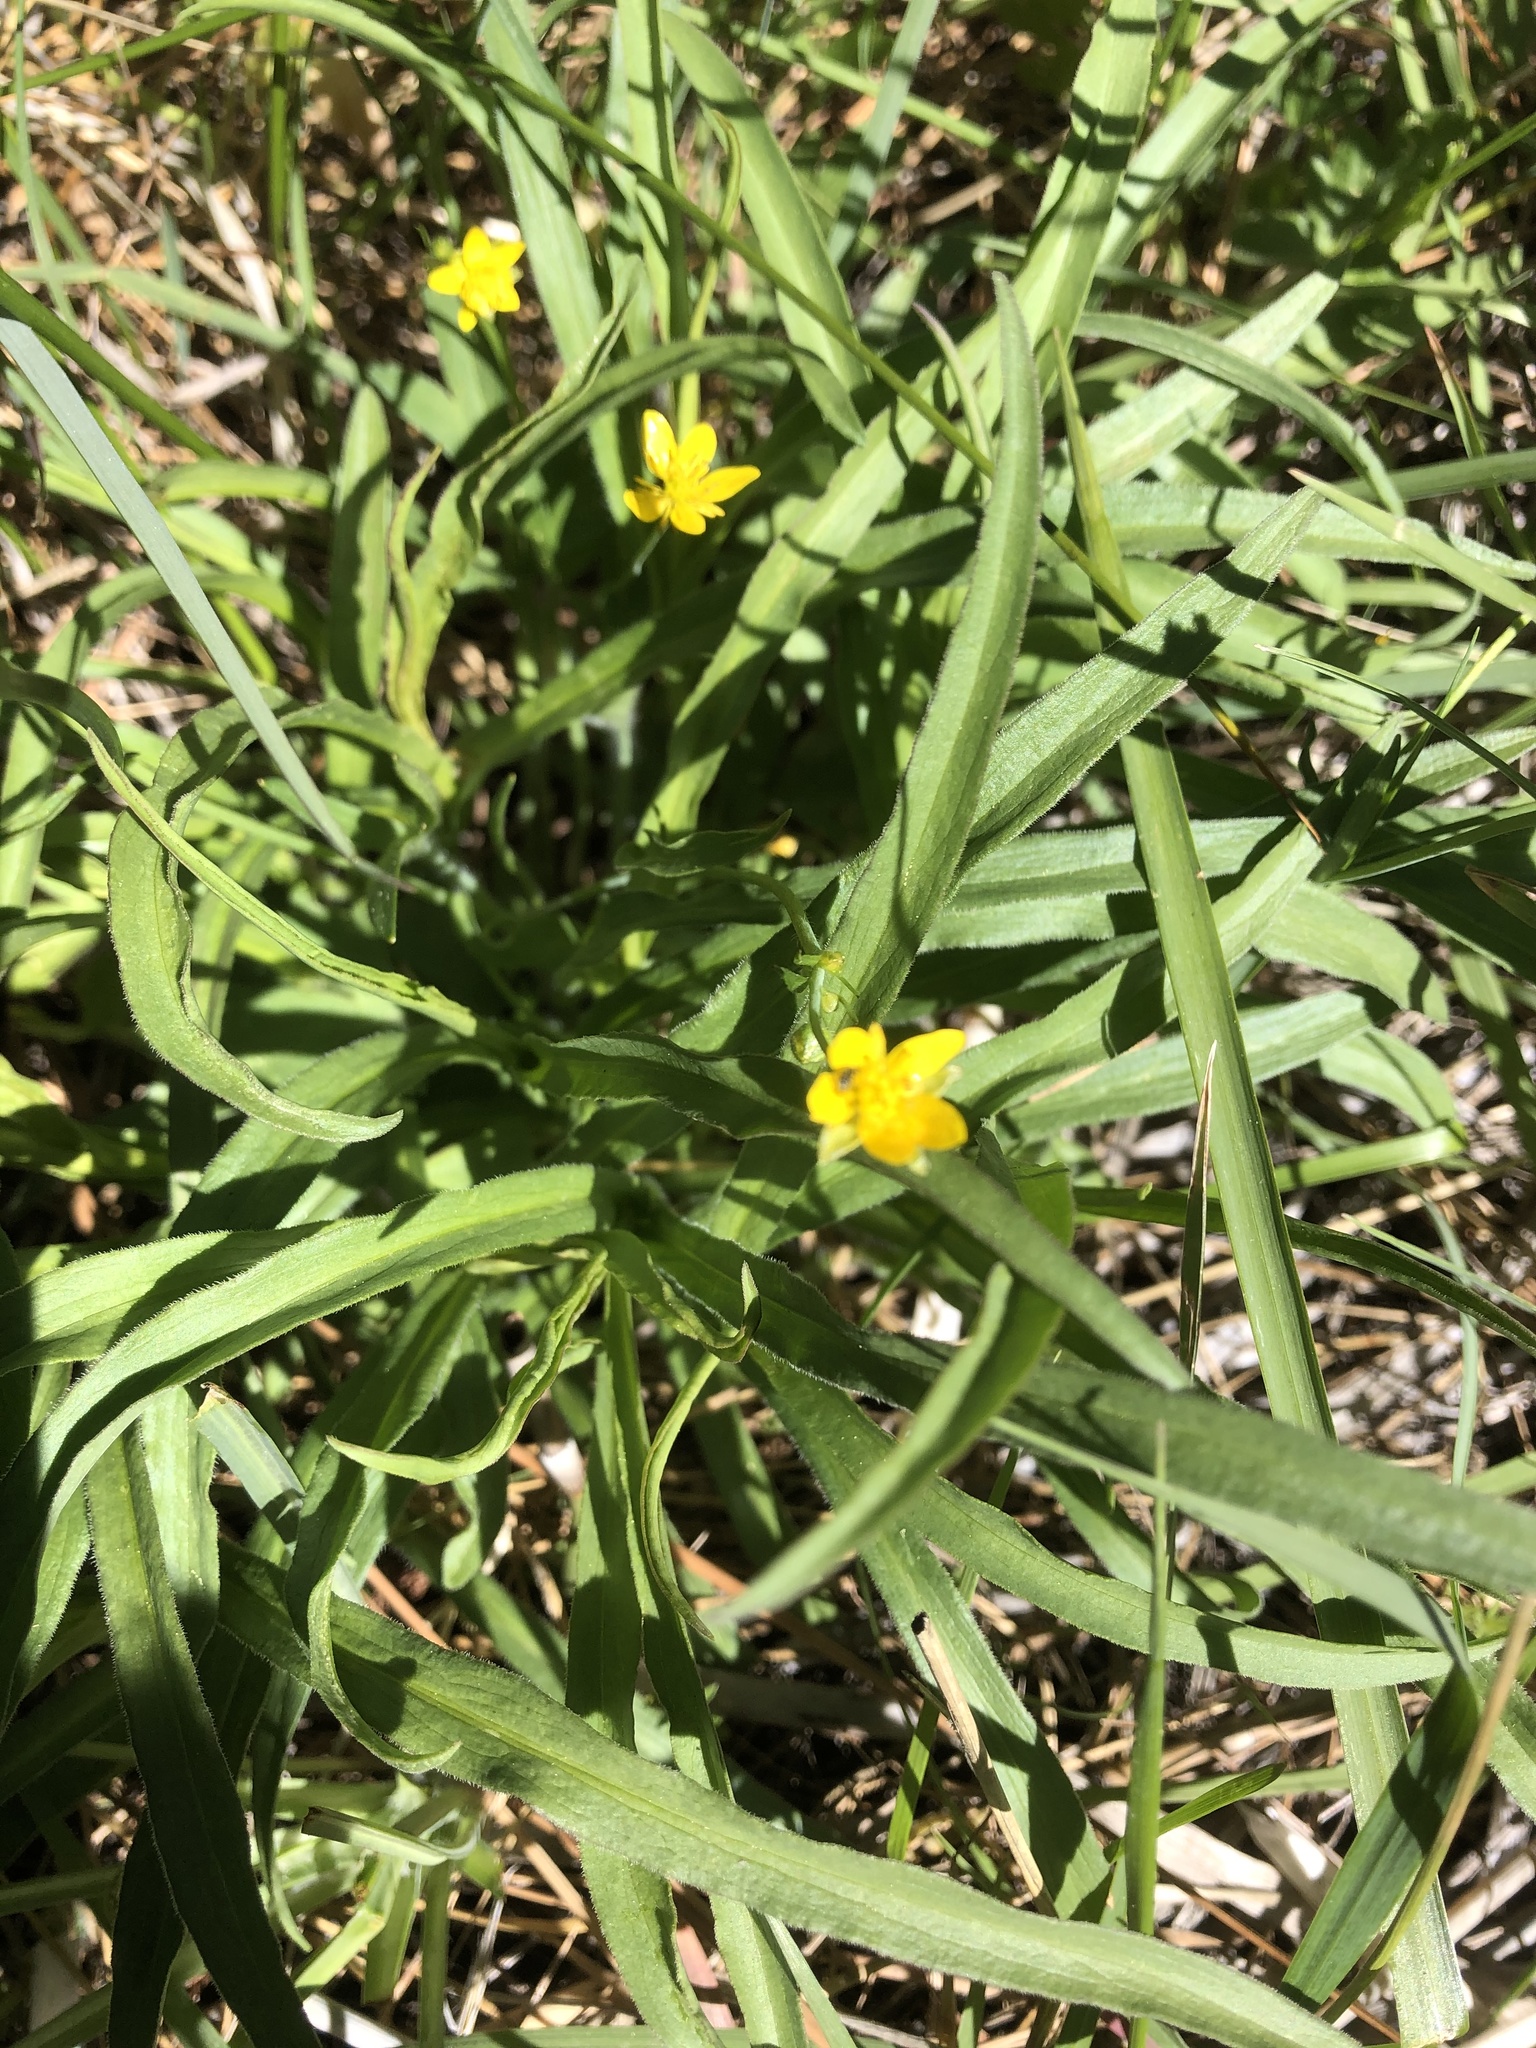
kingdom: Plantae
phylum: Tracheophyta
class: Magnoliopsida
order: Ranunculales
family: Ranunculaceae
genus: Ranunculus
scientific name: Ranunculus alismifolius
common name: Plantain-leaved buttercup
